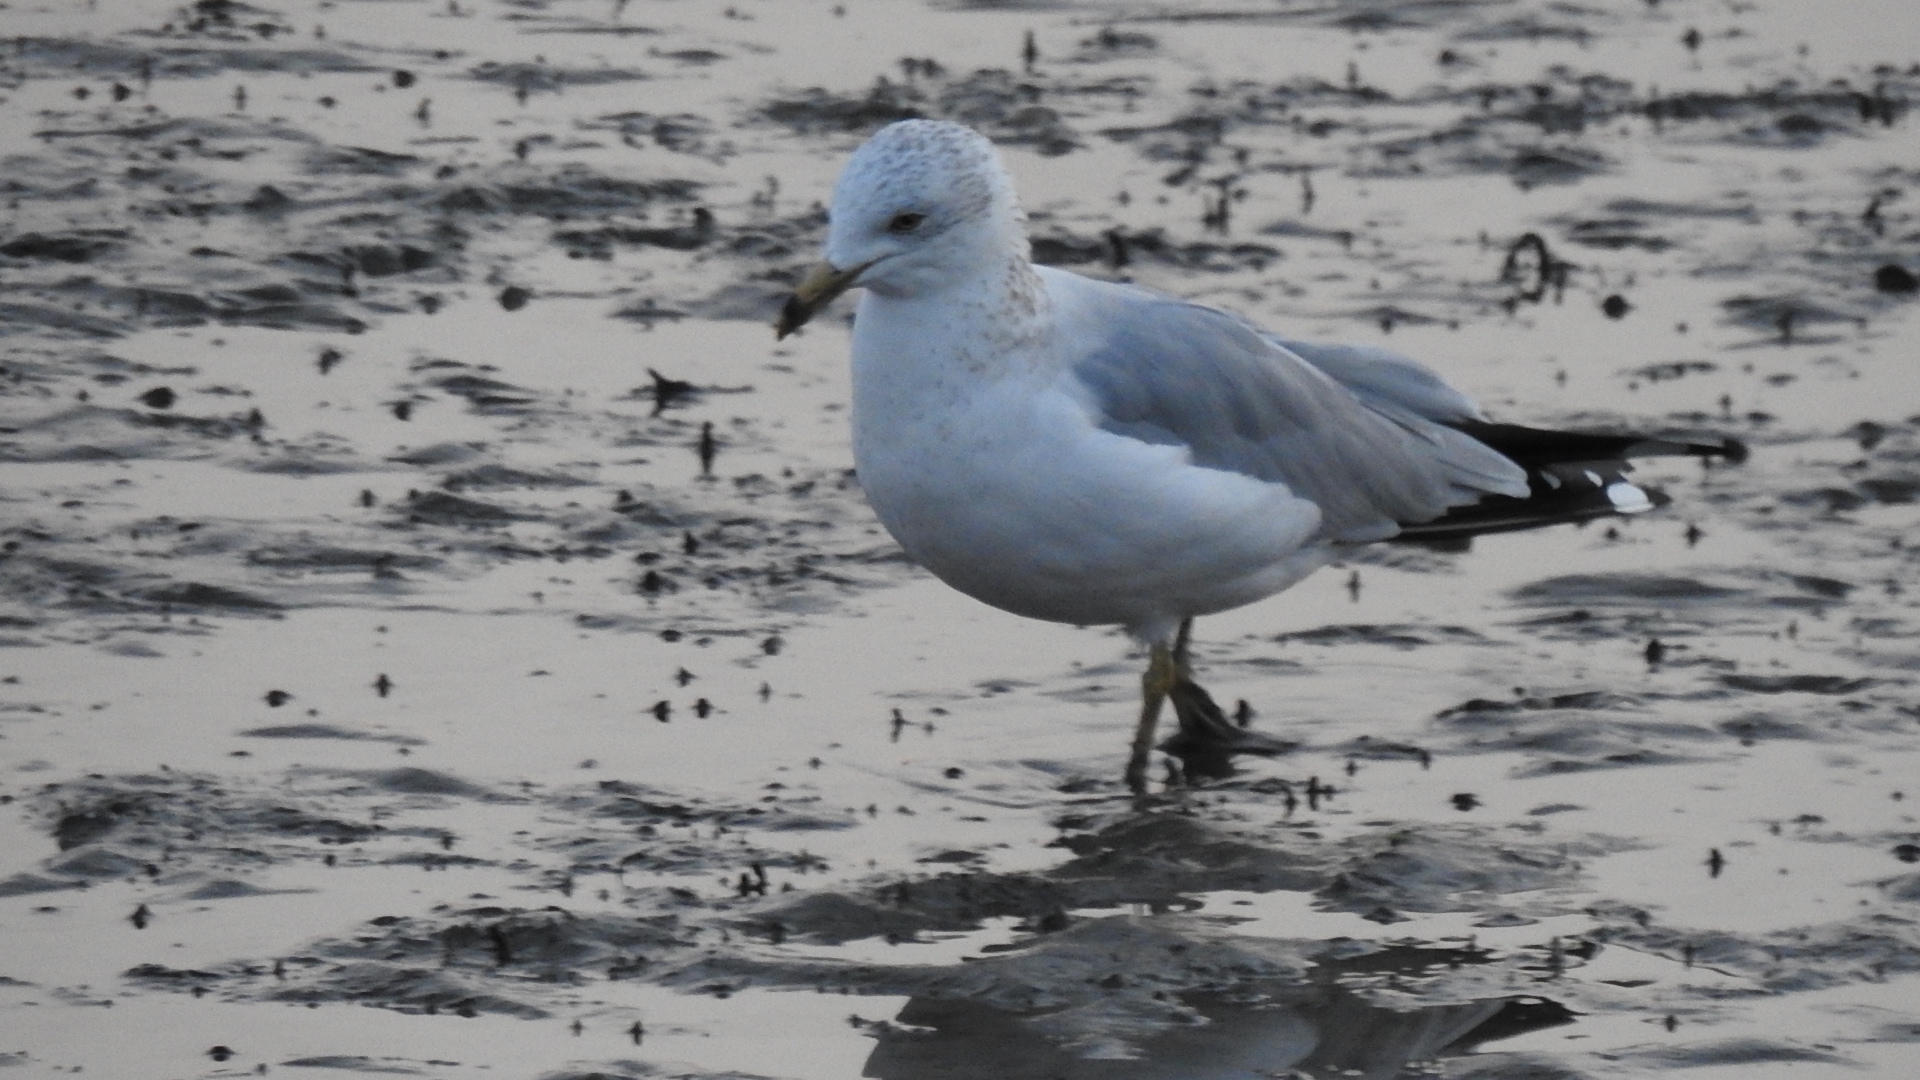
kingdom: Animalia
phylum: Chordata
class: Aves
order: Charadriiformes
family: Laridae
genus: Larus
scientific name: Larus delawarensis
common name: Ring-billed gull
